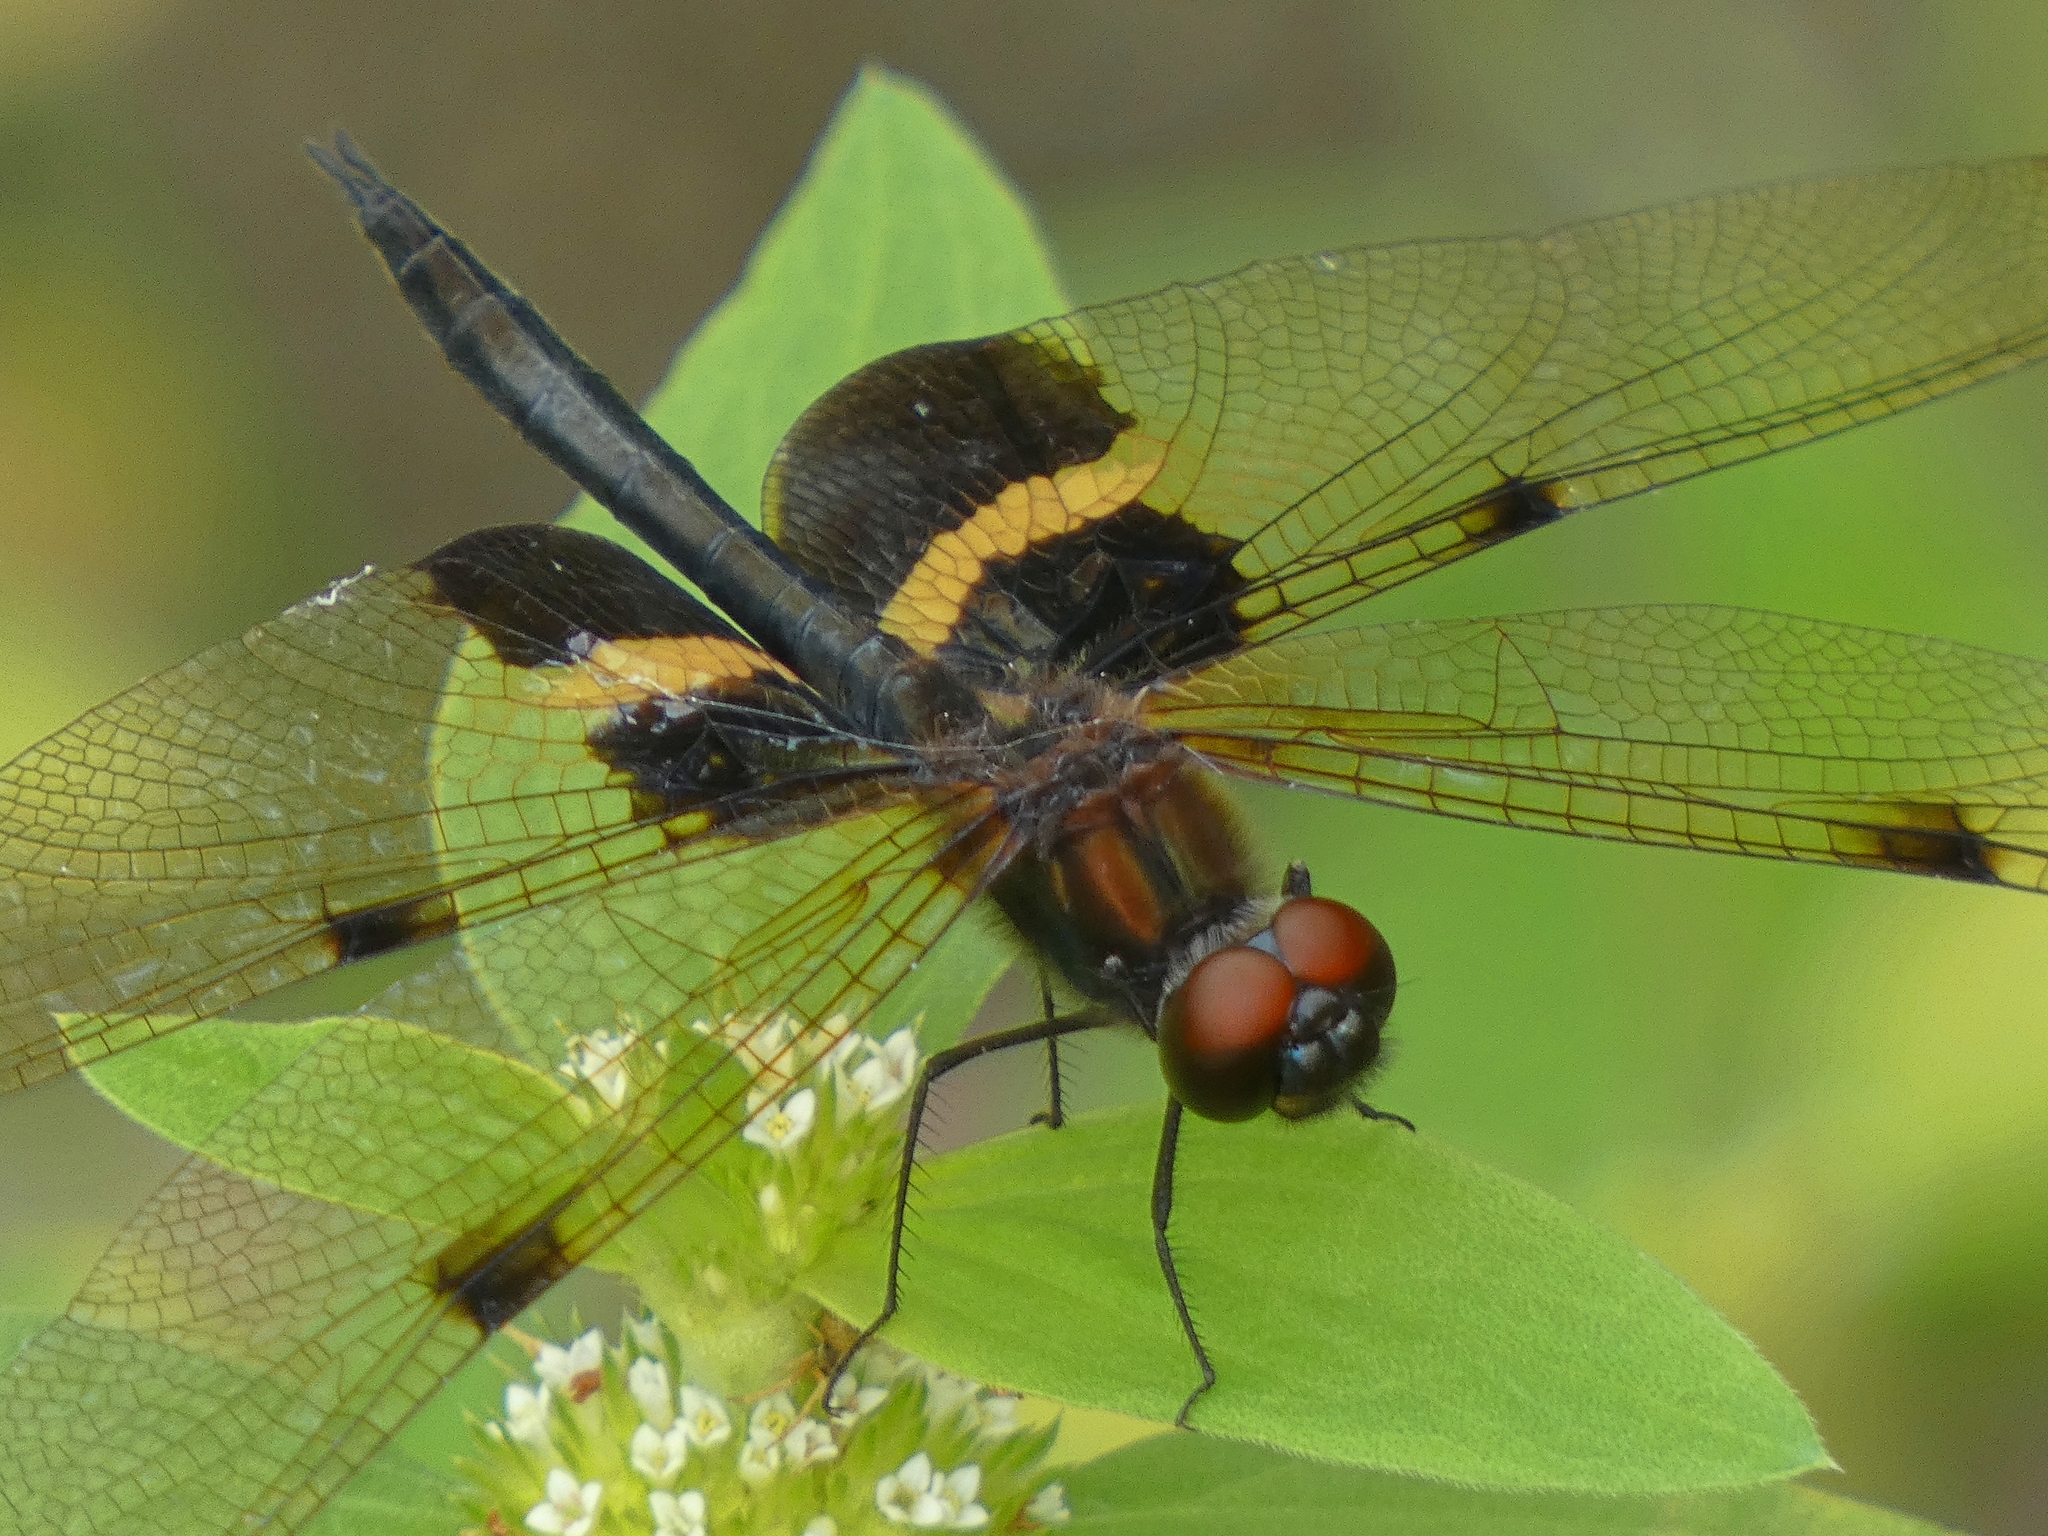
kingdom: Animalia
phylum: Arthropoda
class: Insecta
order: Odonata
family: Libellulidae
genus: Rhyothemis
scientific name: Rhyothemis phyllis
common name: Yellow-barred flutterer
